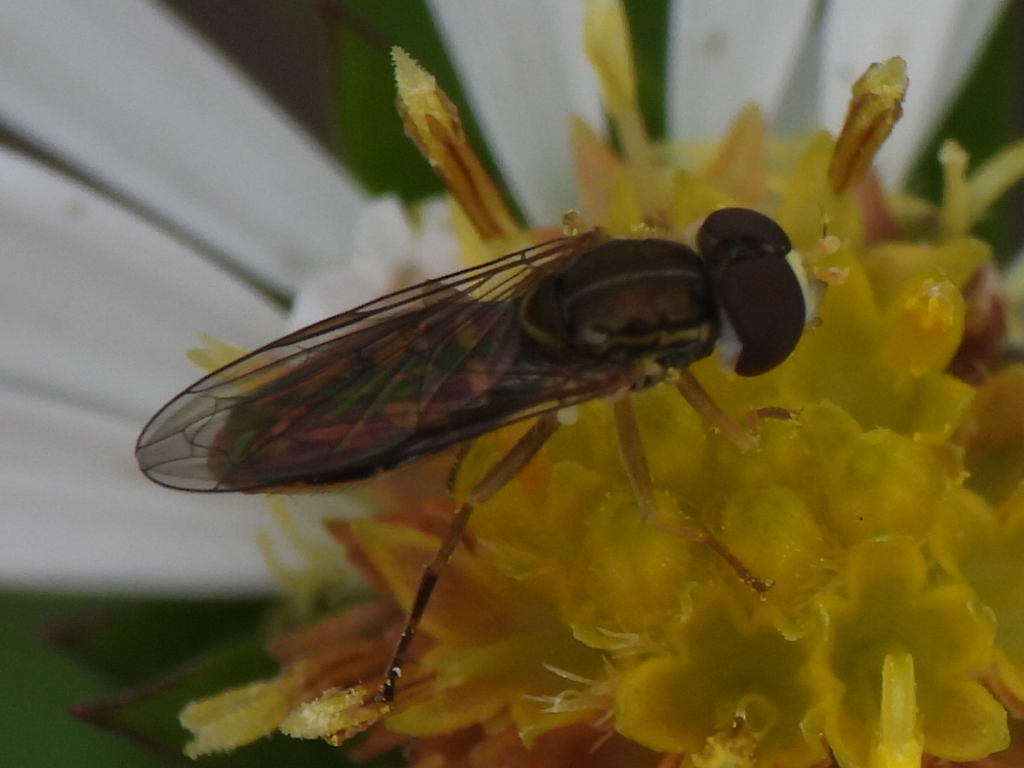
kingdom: Animalia
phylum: Arthropoda
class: Insecta
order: Diptera
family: Syrphidae
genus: Toxomerus
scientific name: Toxomerus marginatus
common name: Syrphid fly
